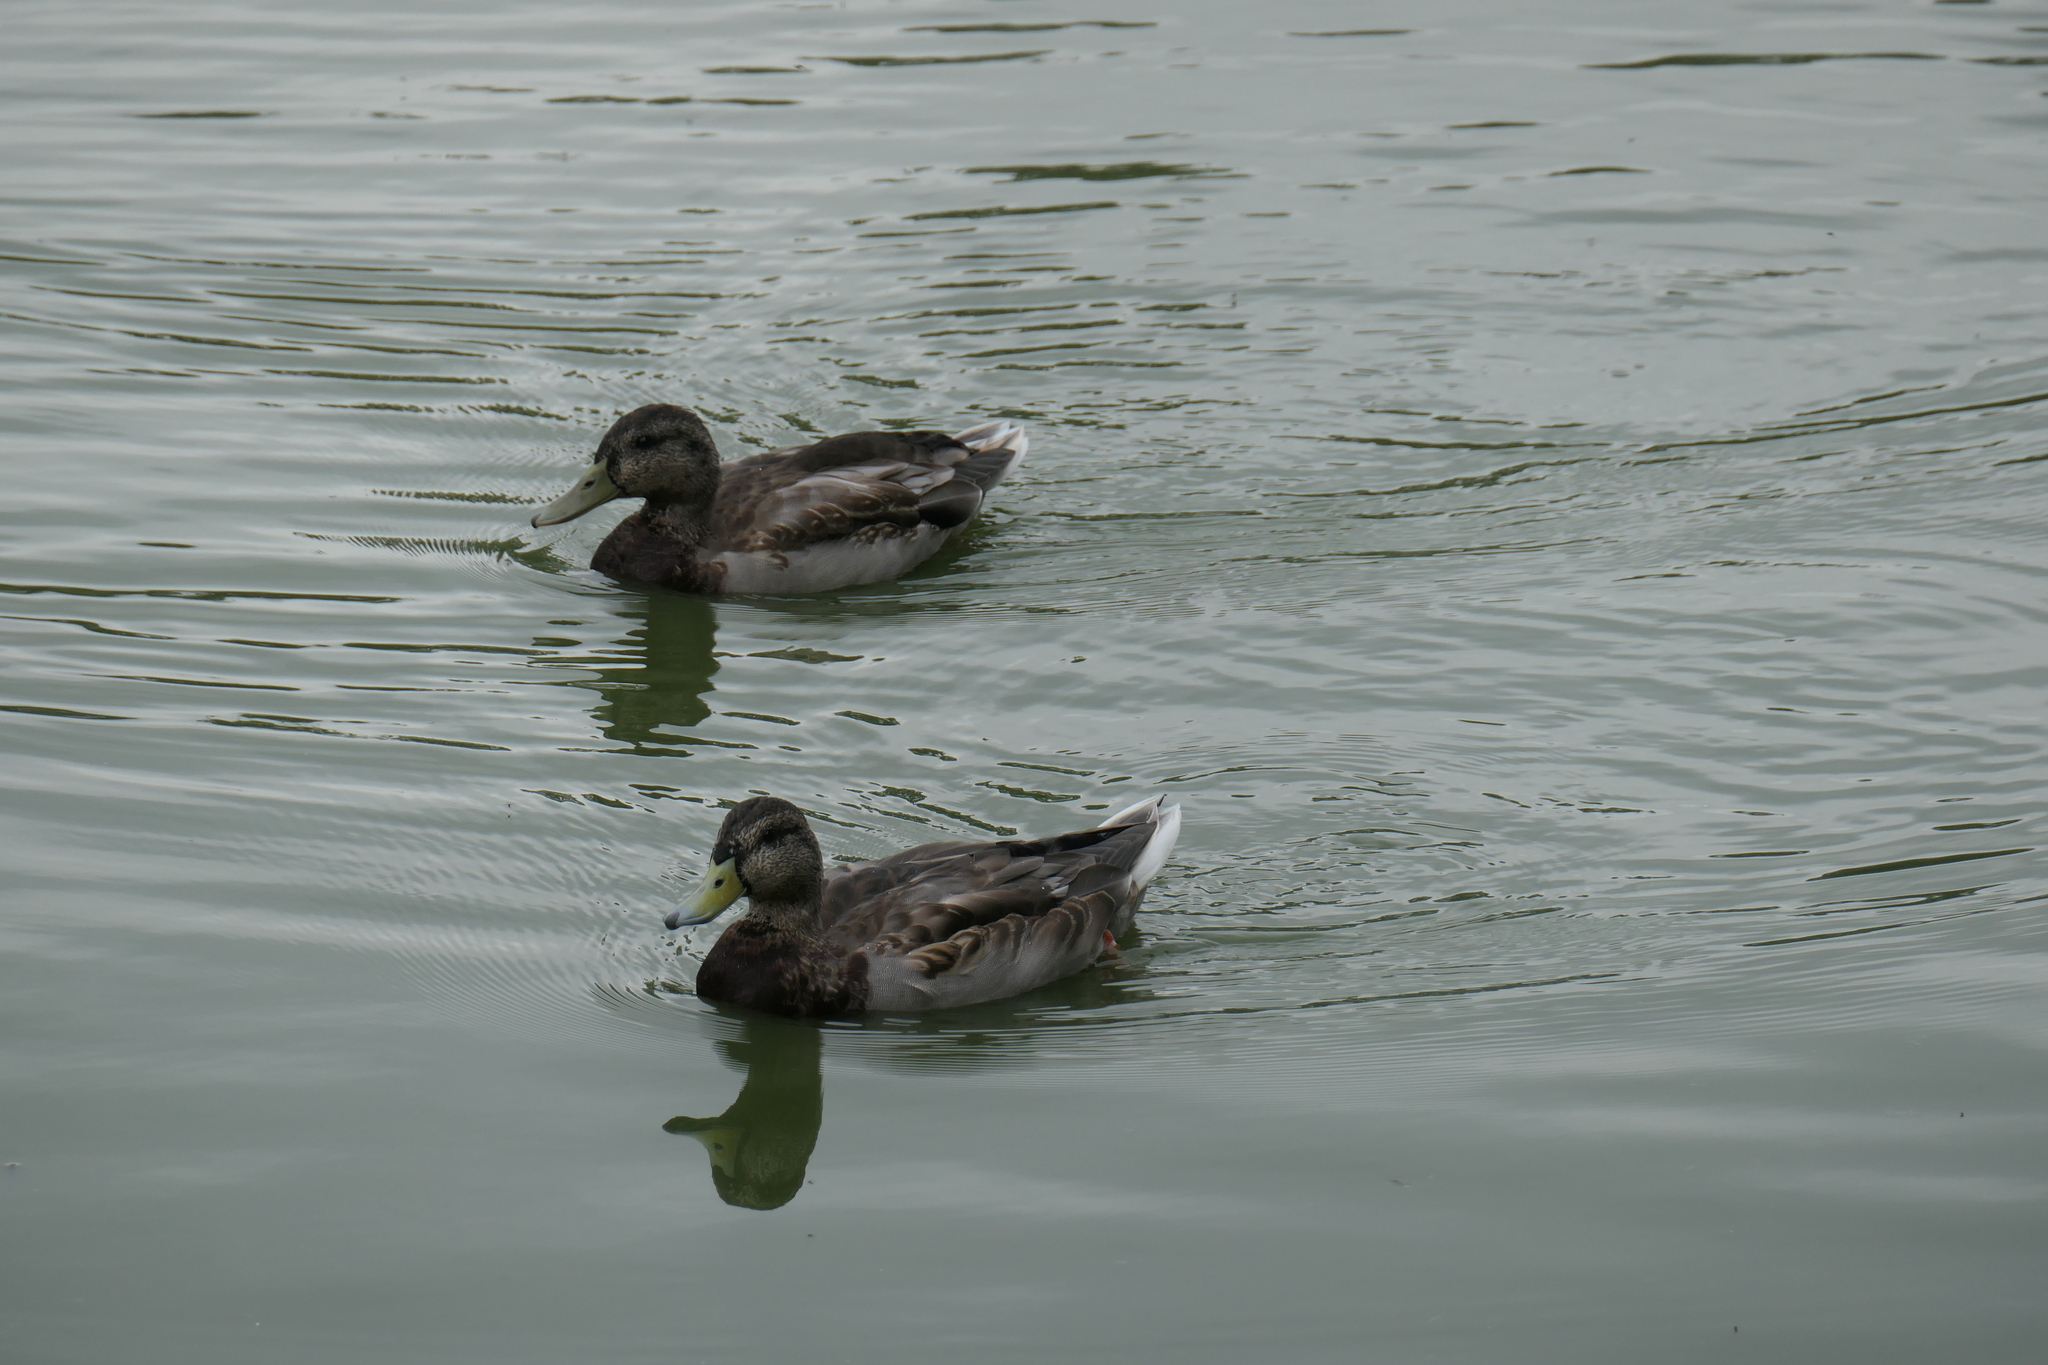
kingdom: Animalia
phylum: Chordata
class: Aves
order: Anseriformes
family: Anatidae
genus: Anas
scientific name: Anas platyrhynchos
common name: Mallard
